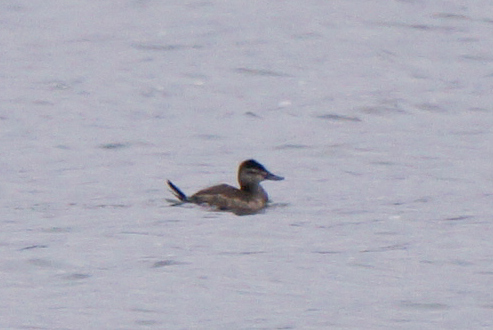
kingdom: Animalia
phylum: Chordata
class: Aves
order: Anseriformes
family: Anatidae
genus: Oxyura
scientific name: Oxyura jamaicensis
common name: Ruddy duck
